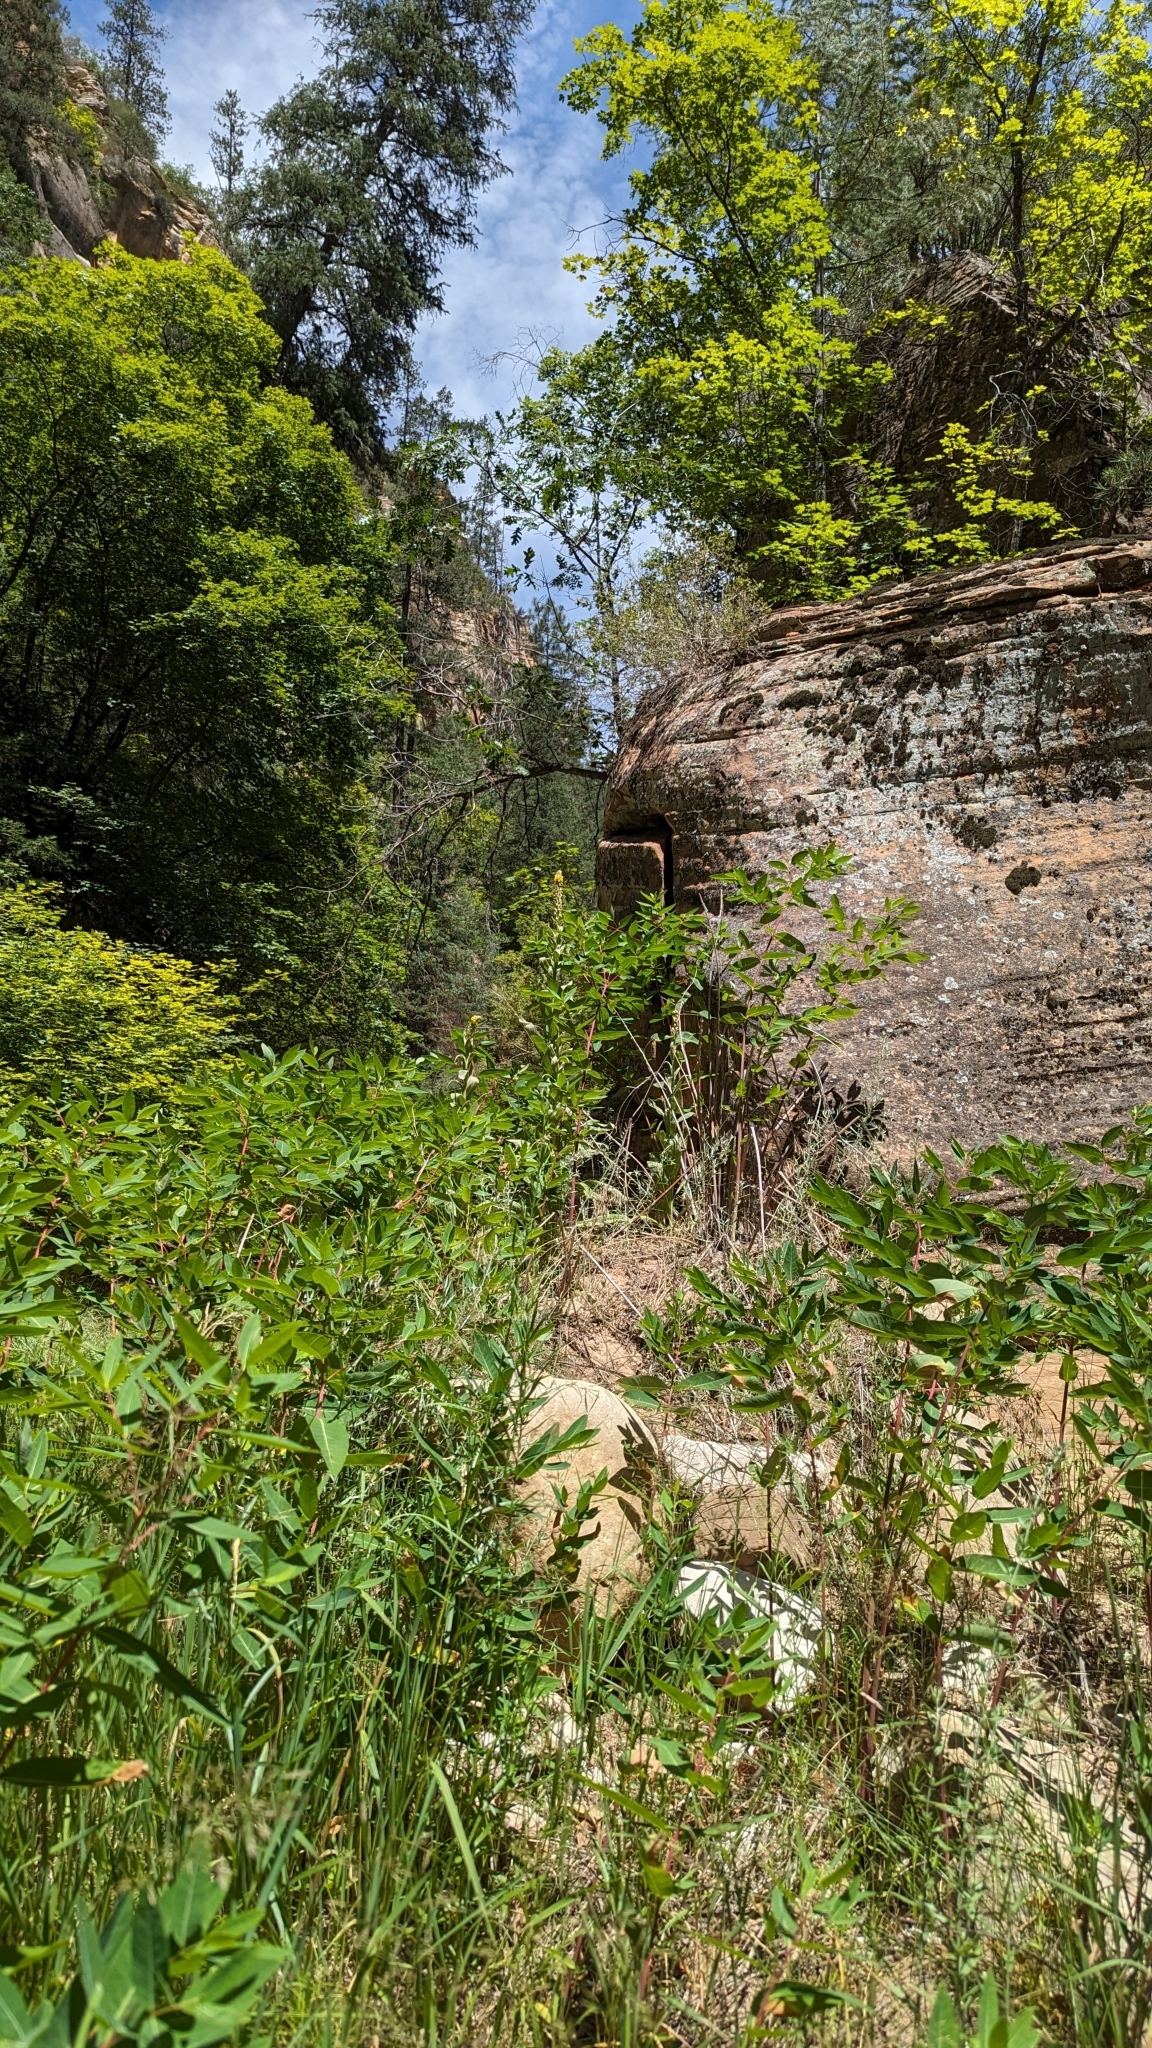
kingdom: Plantae
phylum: Tracheophyta
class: Magnoliopsida
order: Lamiales
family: Scrophulariaceae
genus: Verbascum
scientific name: Verbascum thapsus
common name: Common mullein
